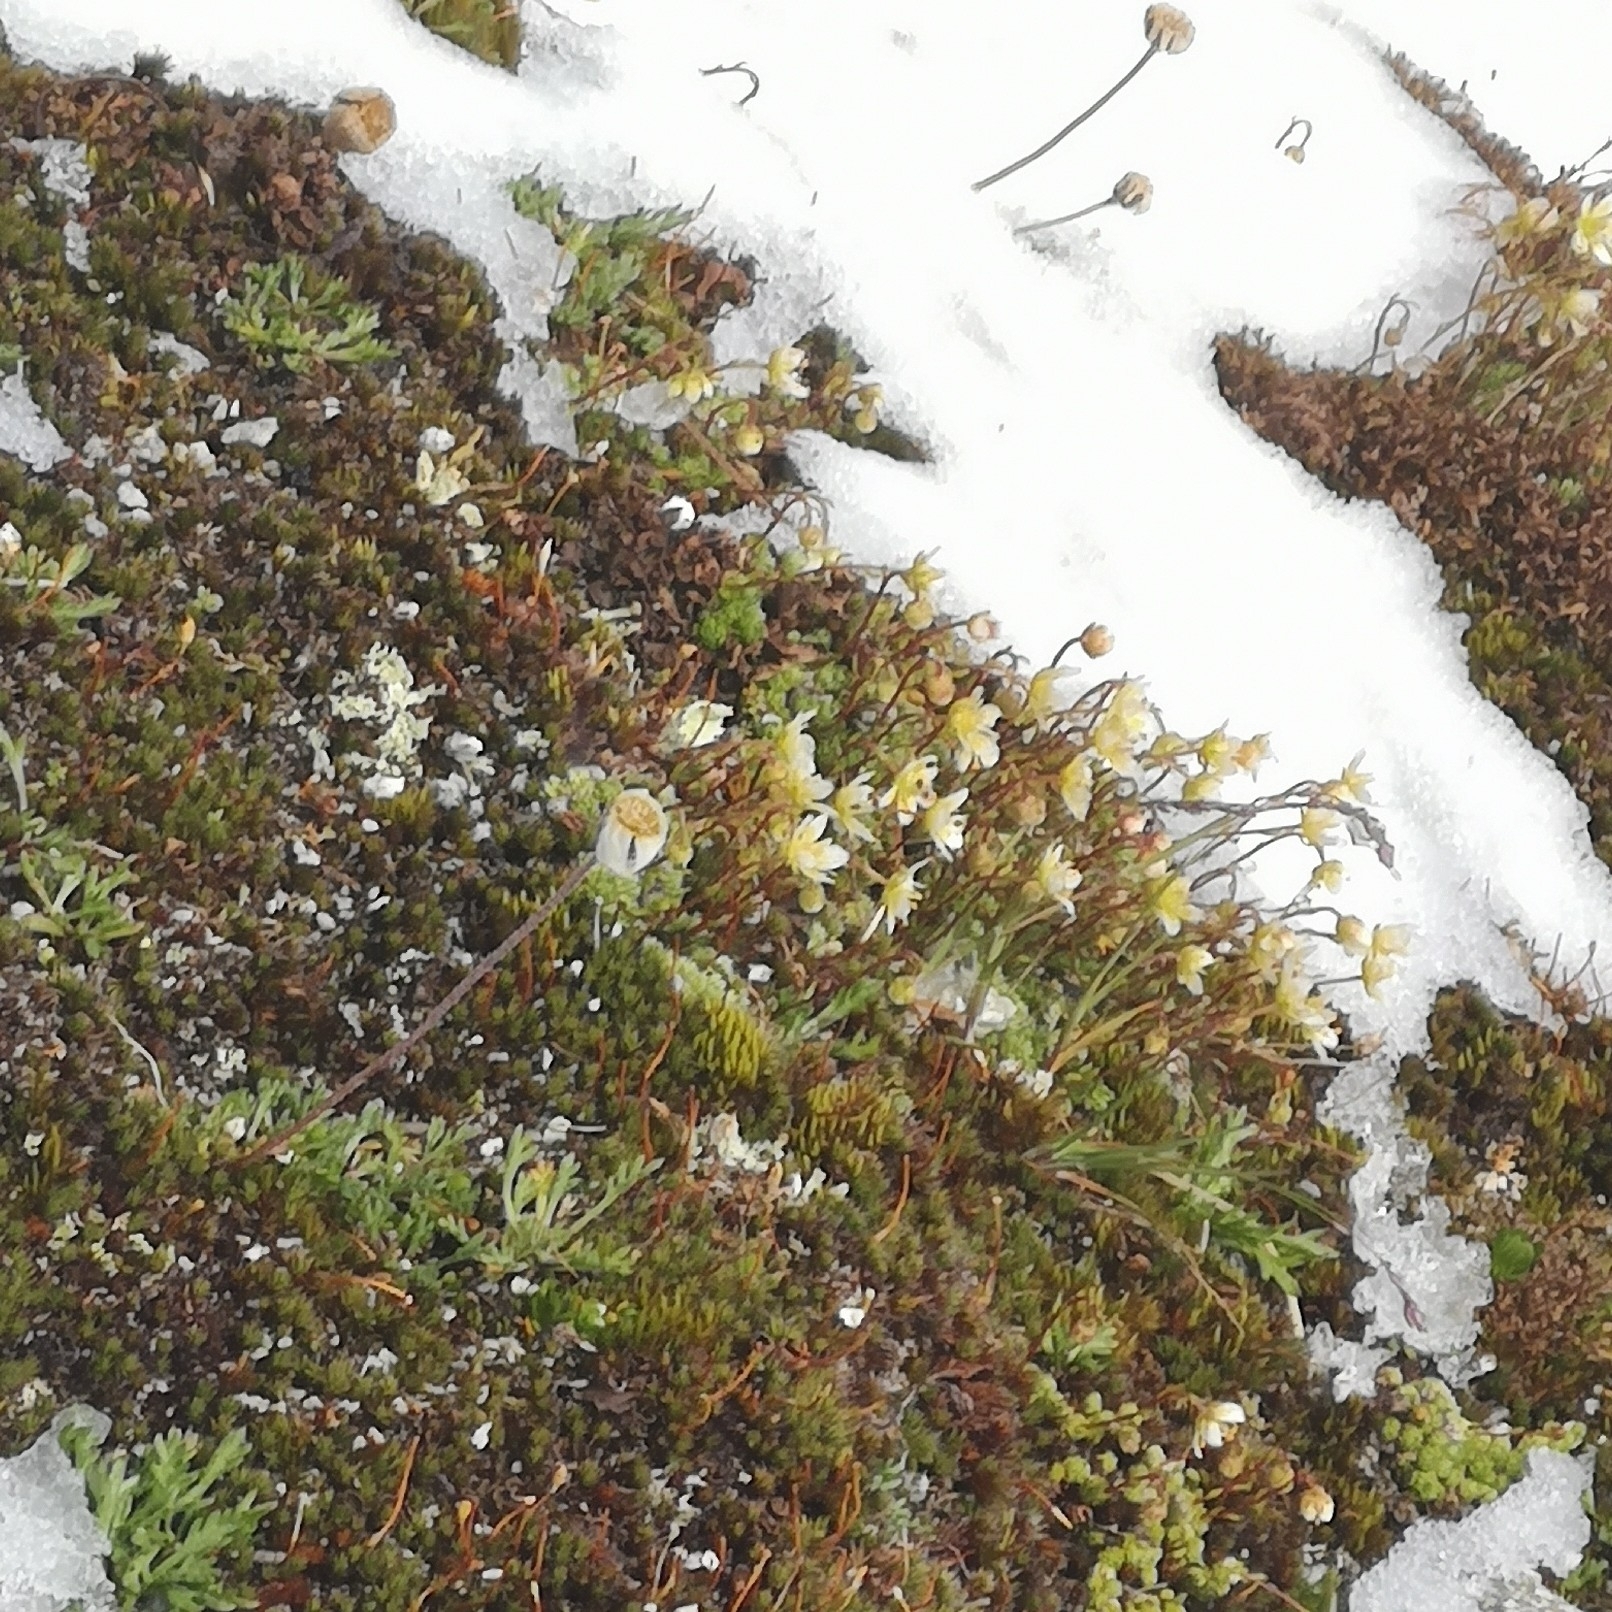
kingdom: Plantae
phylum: Tracheophyta
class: Magnoliopsida
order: Saxifragales
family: Saxifragaceae
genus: Saxifraga
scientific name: Saxifraga bryoides
